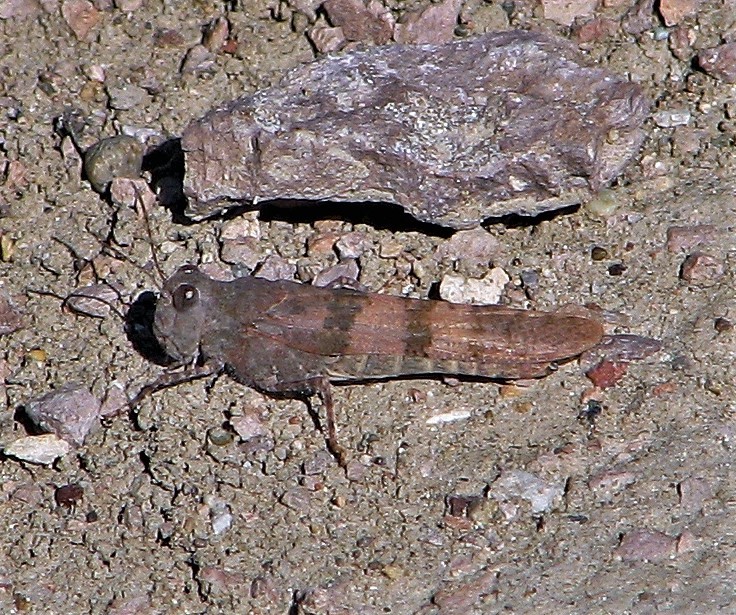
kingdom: Animalia
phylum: Arthropoda
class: Insecta
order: Orthoptera
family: Acrididae
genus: Trimerotropis
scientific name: Trimerotropis pallidipennis
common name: Pallid-winged grasshopper
